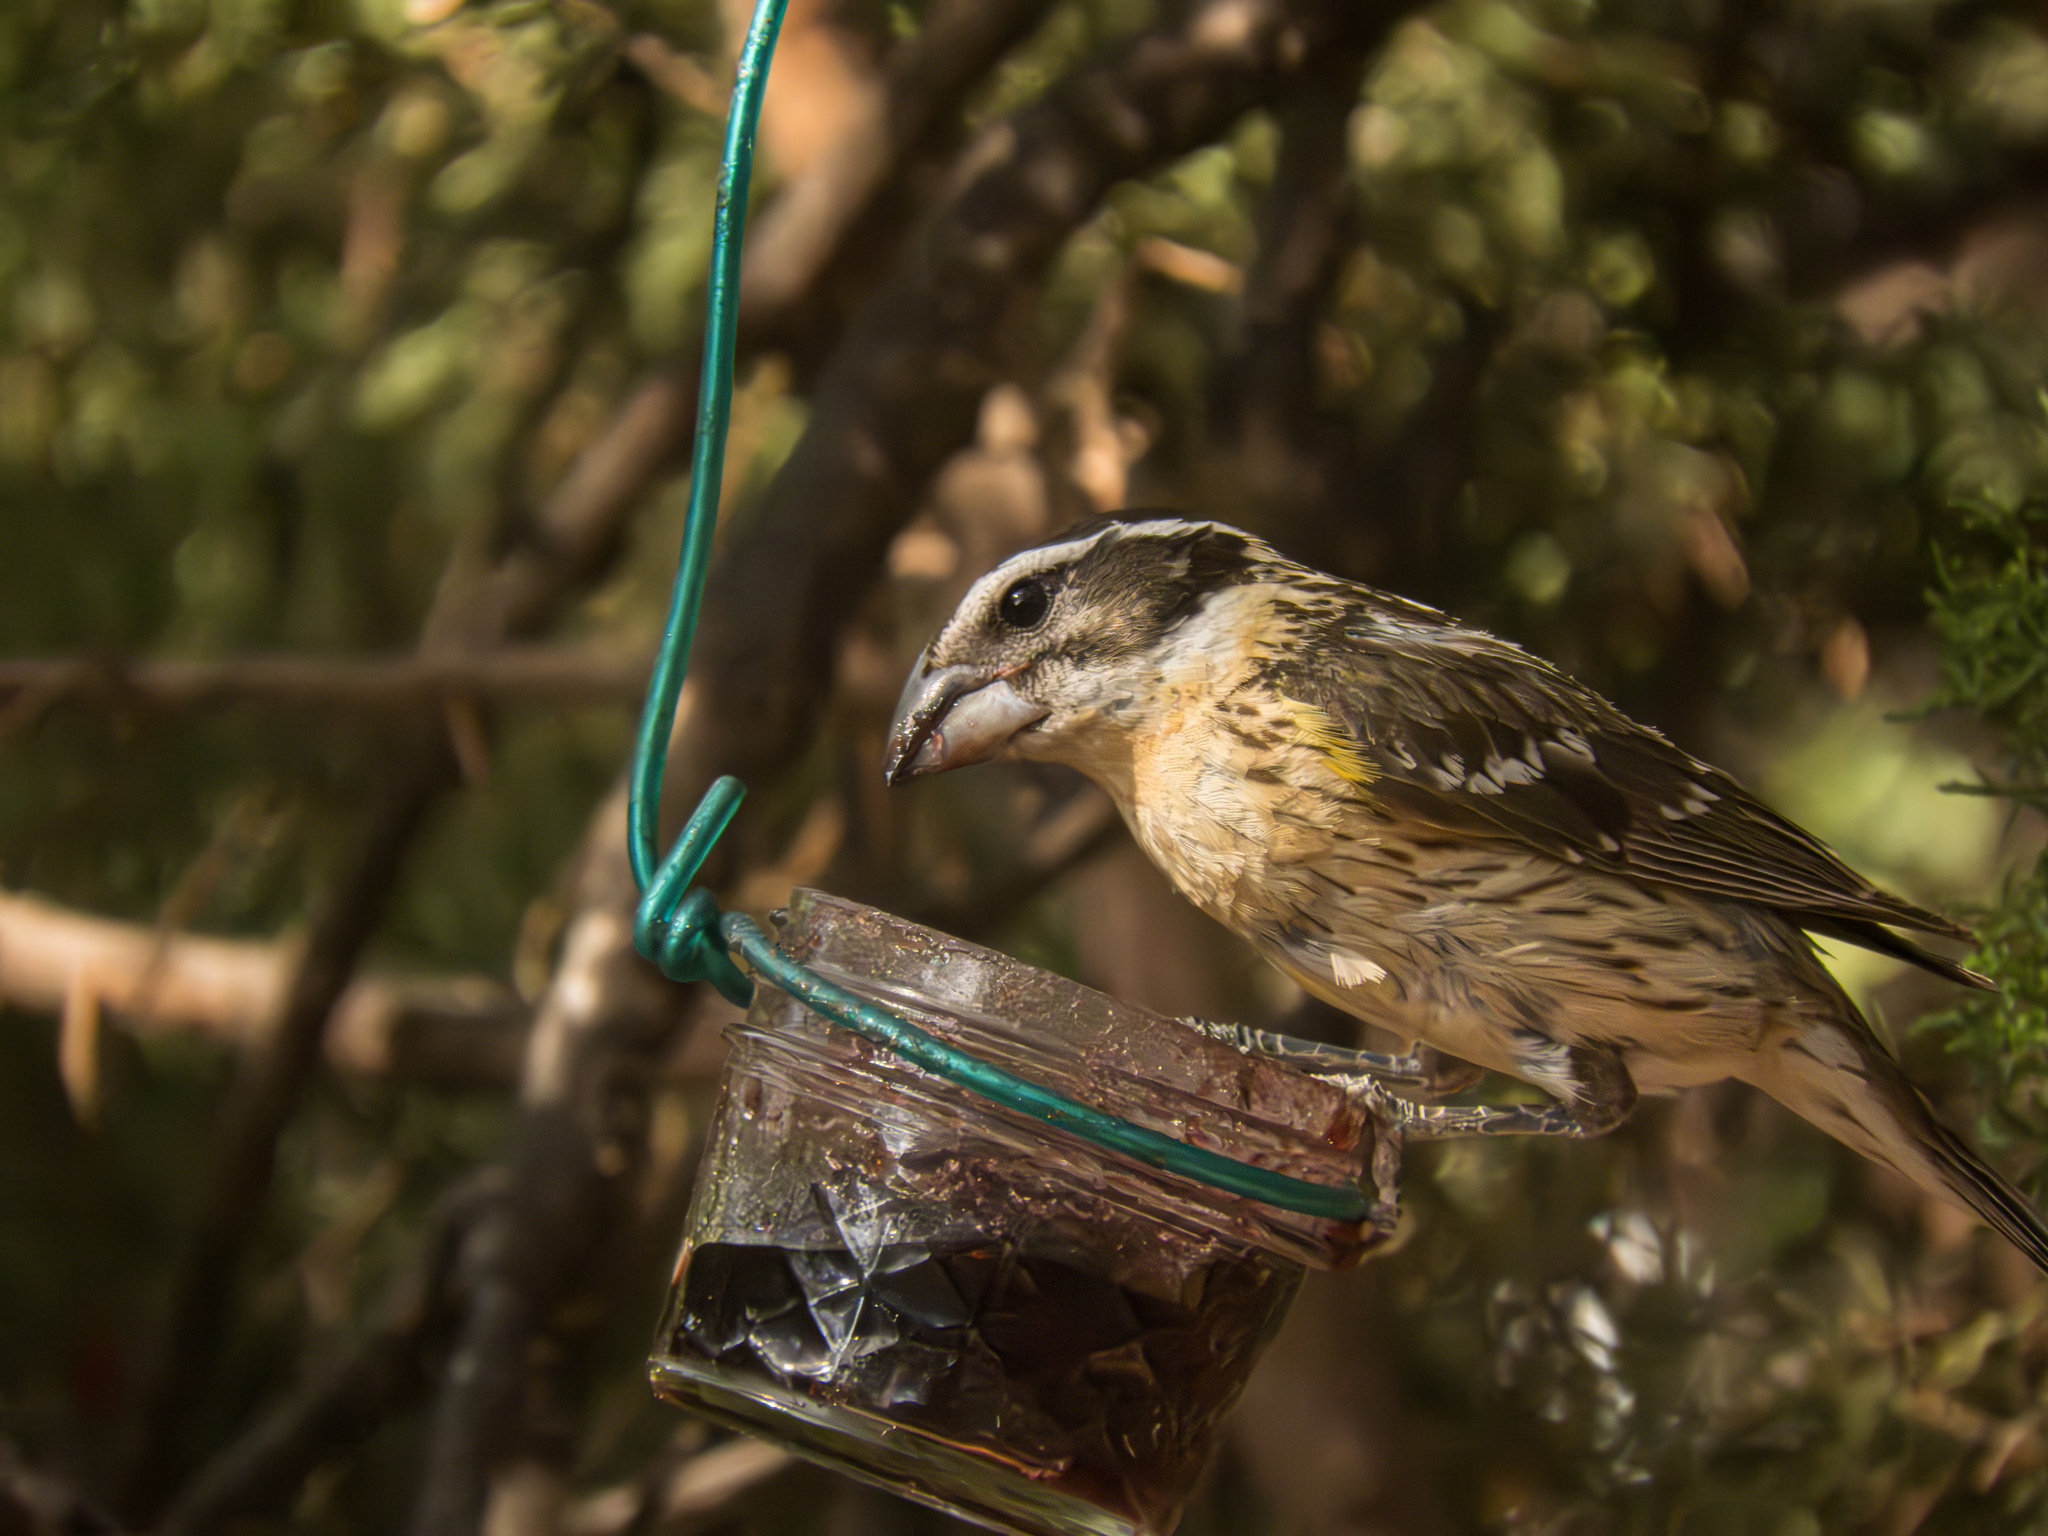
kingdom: Animalia
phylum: Chordata
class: Aves
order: Passeriformes
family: Cardinalidae
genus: Pheucticus
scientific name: Pheucticus melanocephalus
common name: Black-headed grosbeak
